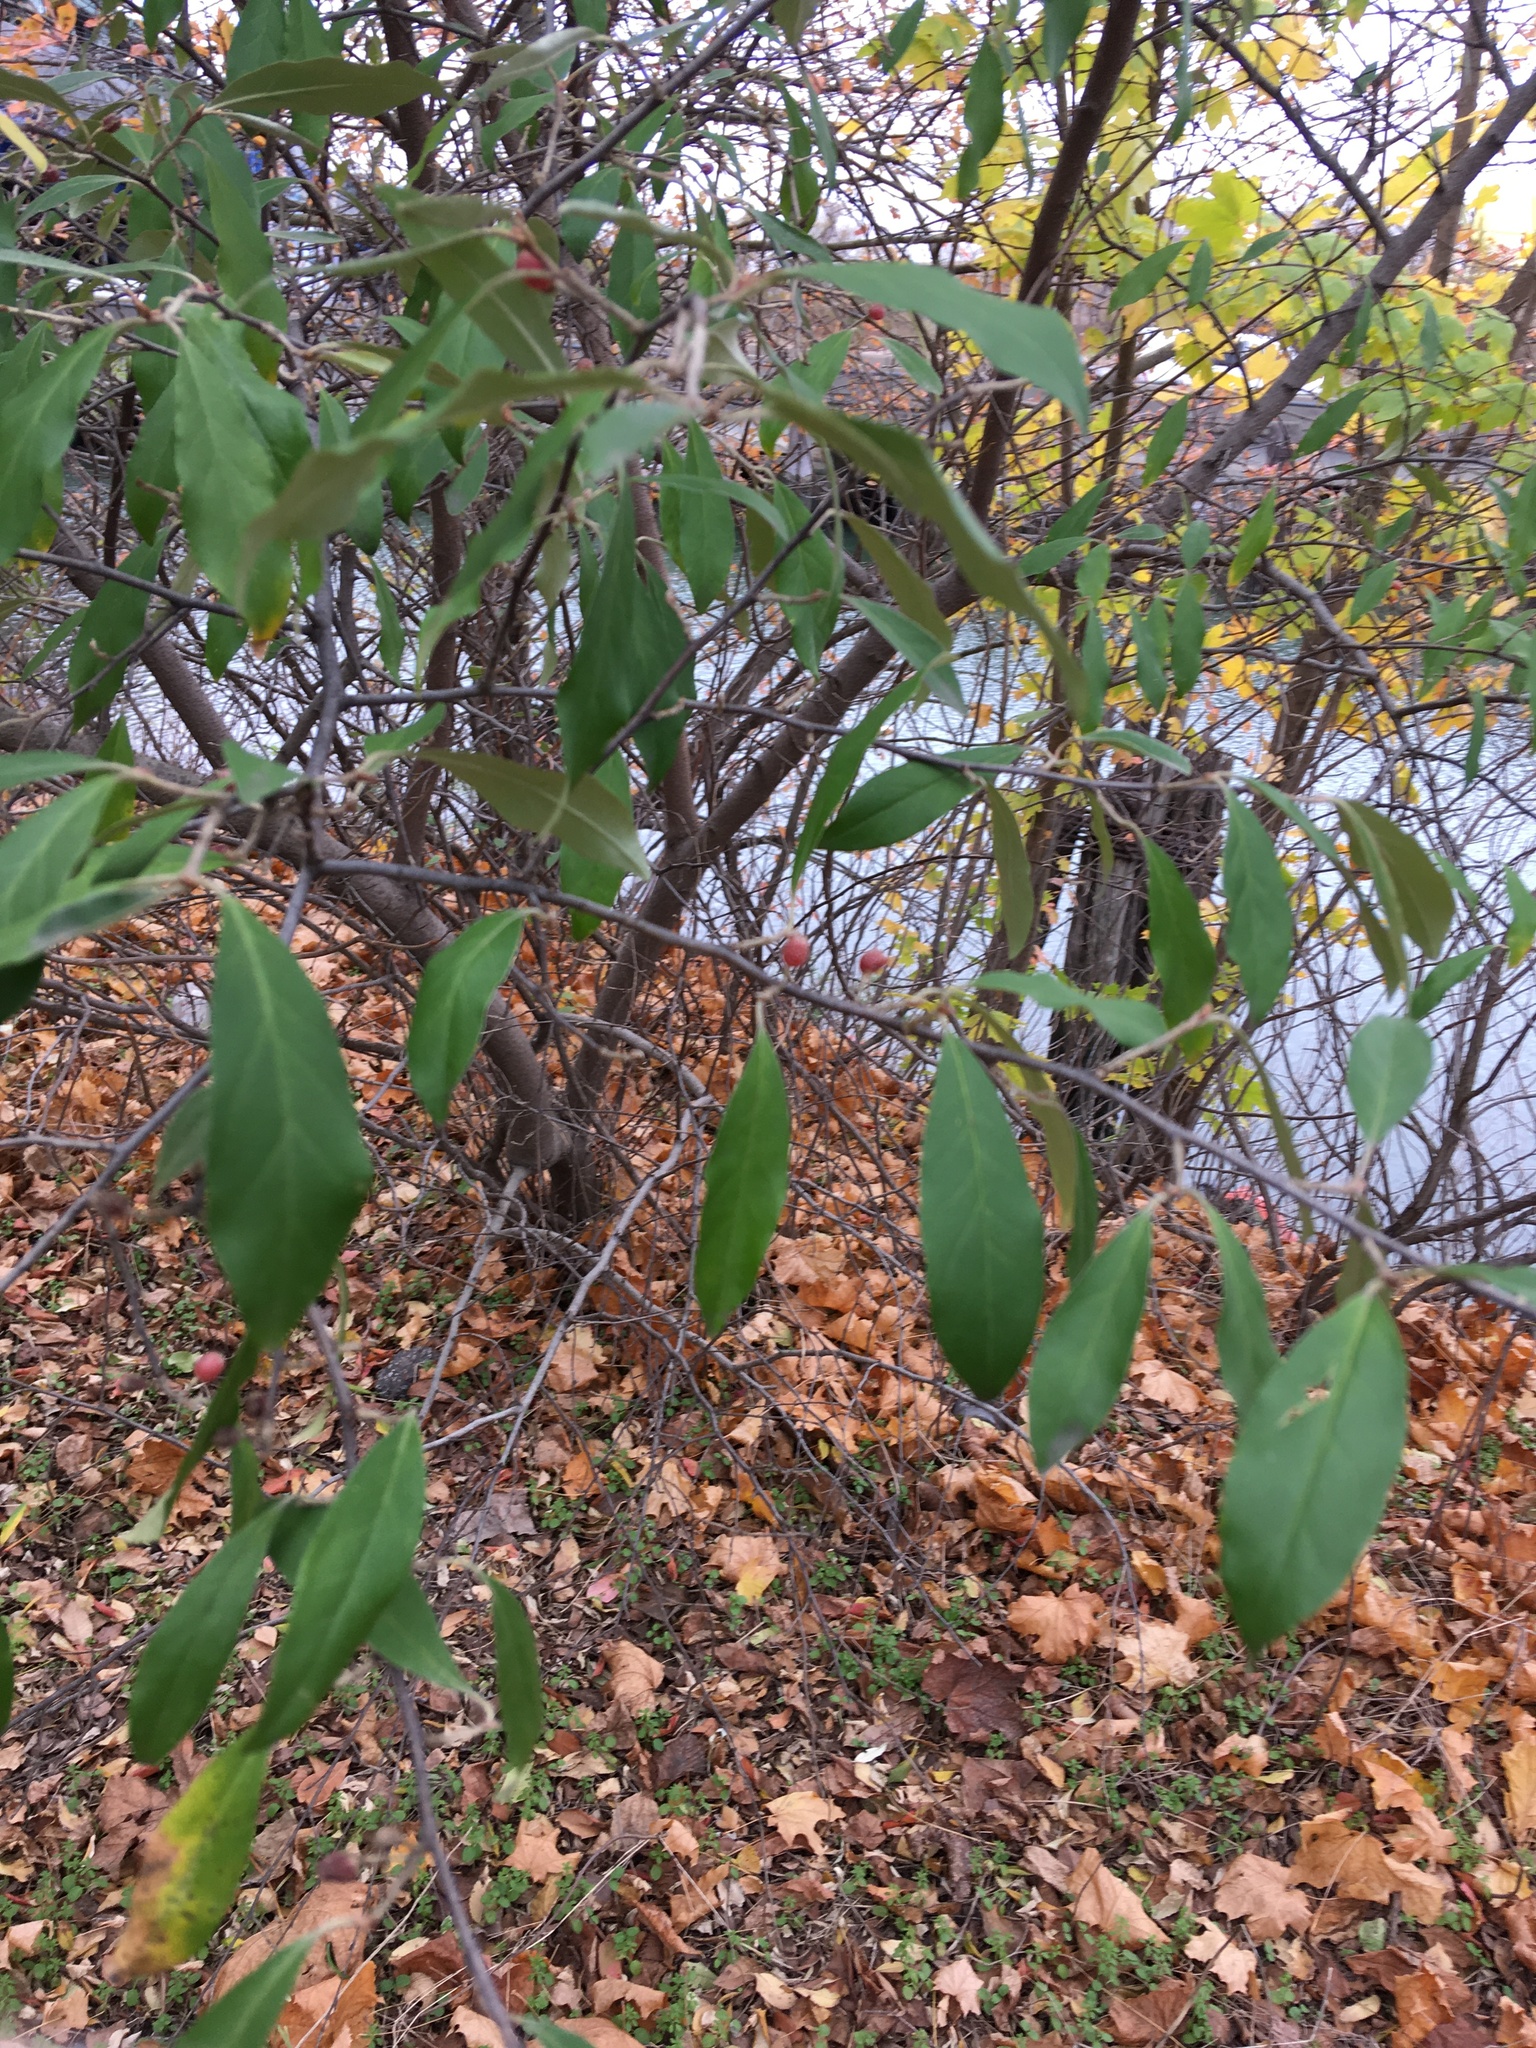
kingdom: Plantae
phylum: Tracheophyta
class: Magnoliopsida
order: Rosales
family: Elaeagnaceae
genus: Elaeagnus
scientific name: Elaeagnus umbellata
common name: Autumn olive
